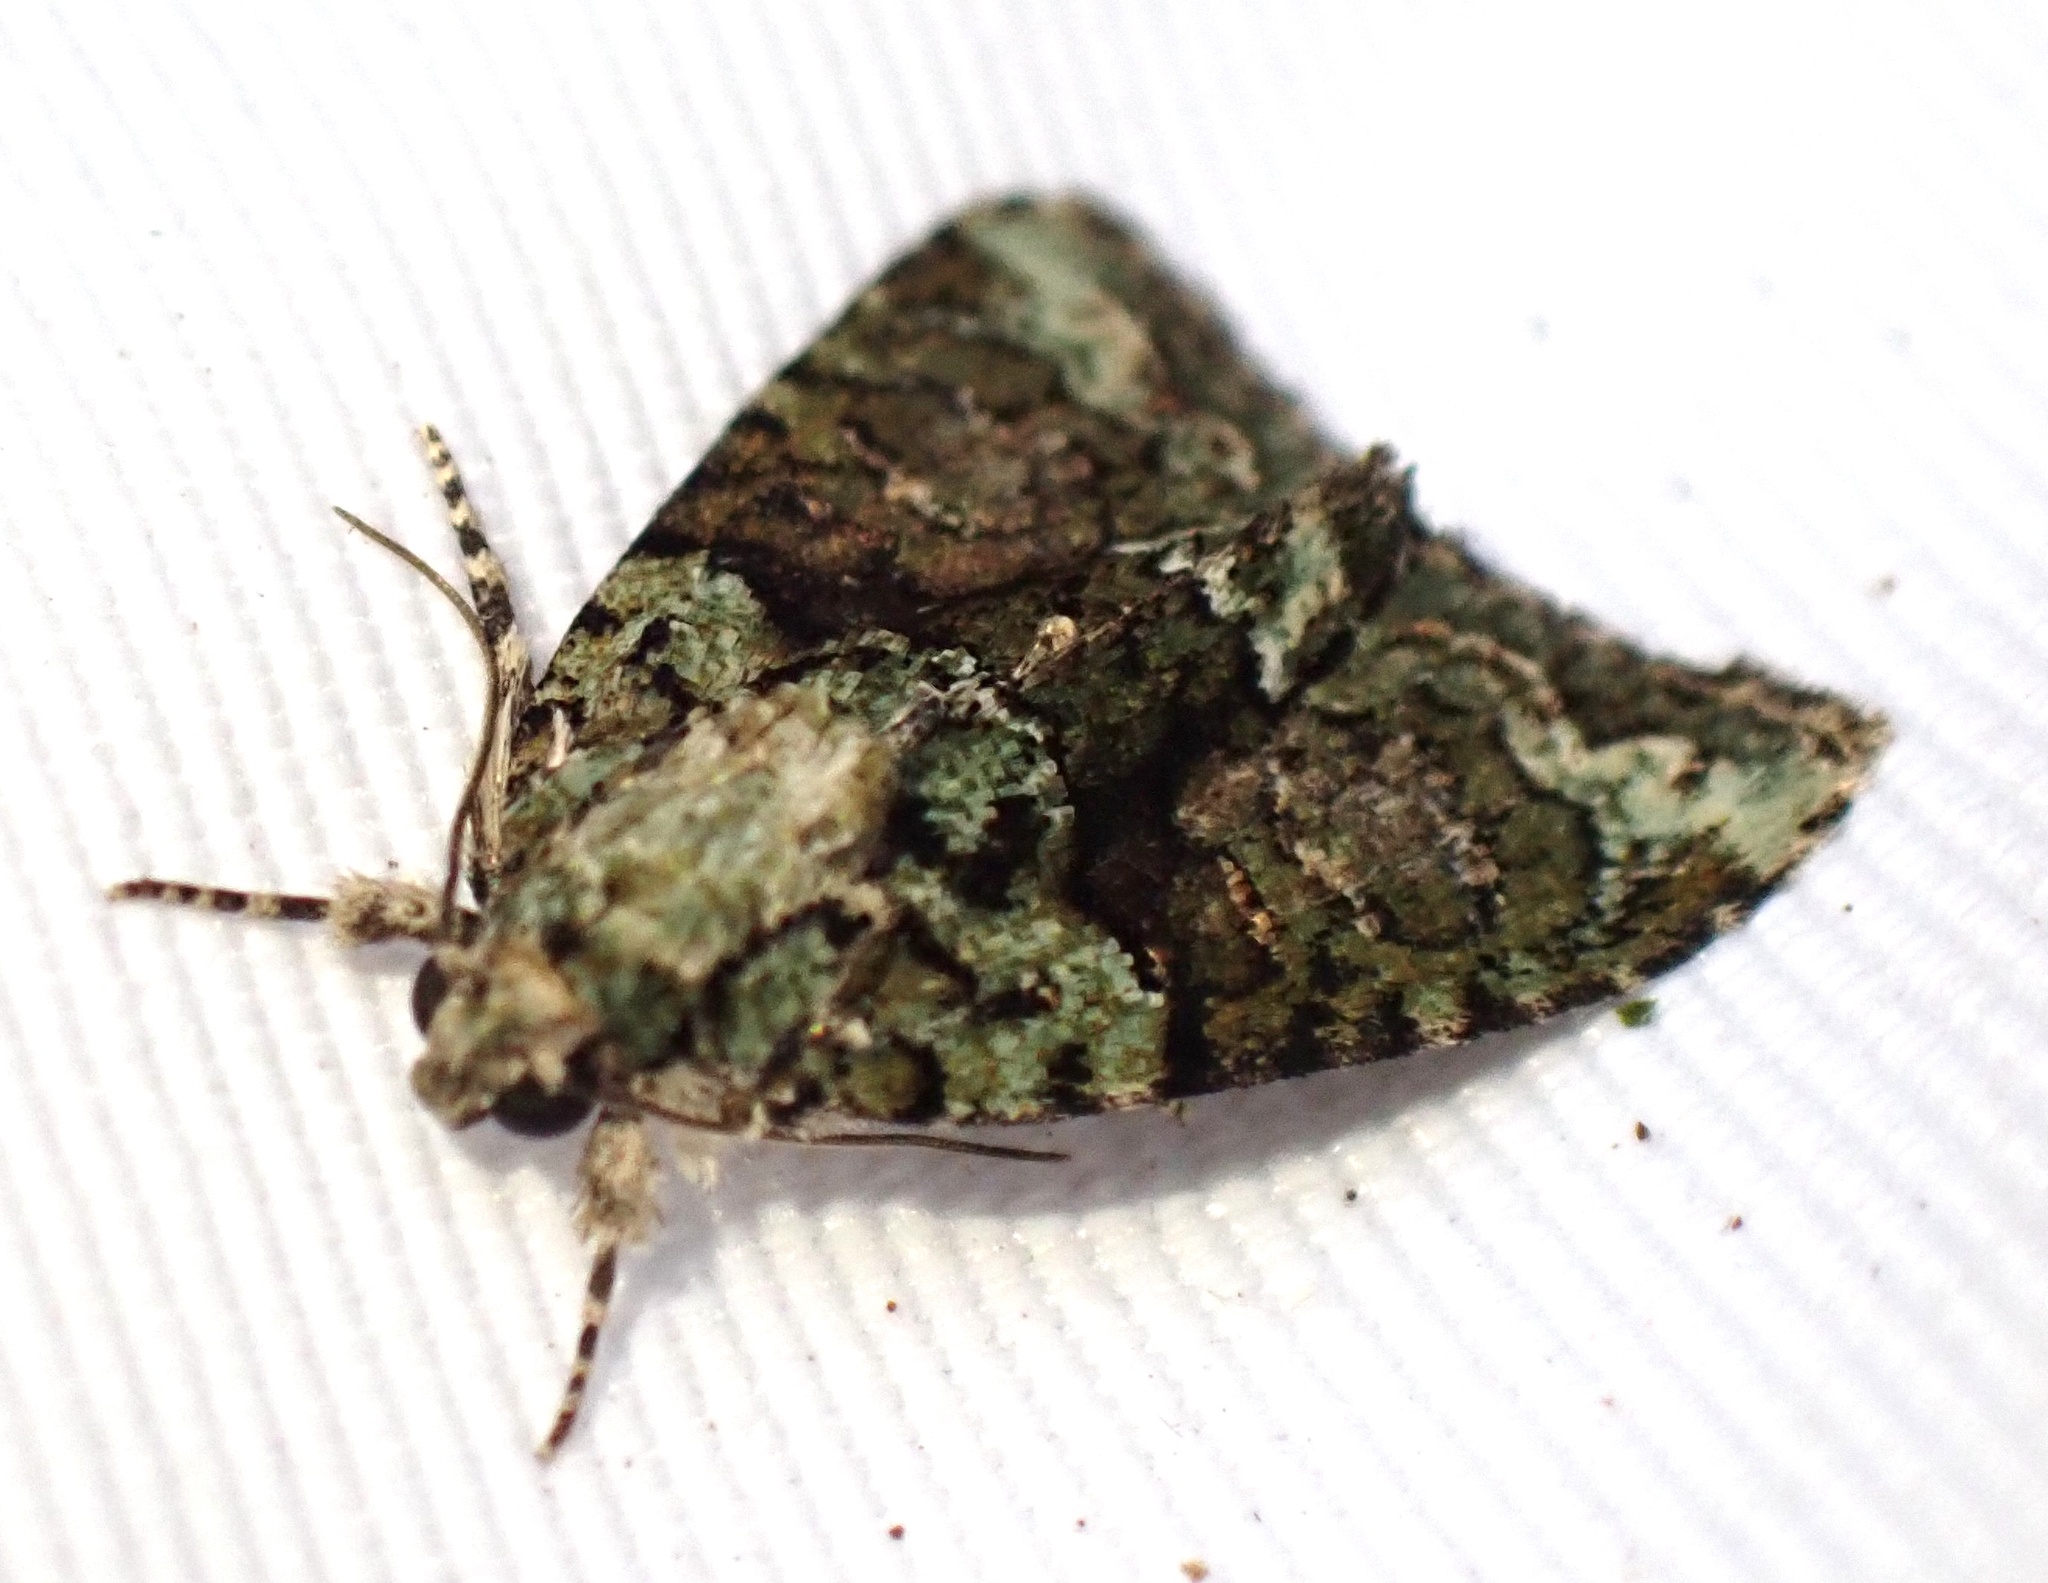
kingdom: Animalia
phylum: Arthropoda
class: Insecta
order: Lepidoptera
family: Noctuidae
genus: Cryphia
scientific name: Cryphia algae
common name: Tree-lichen beauty
